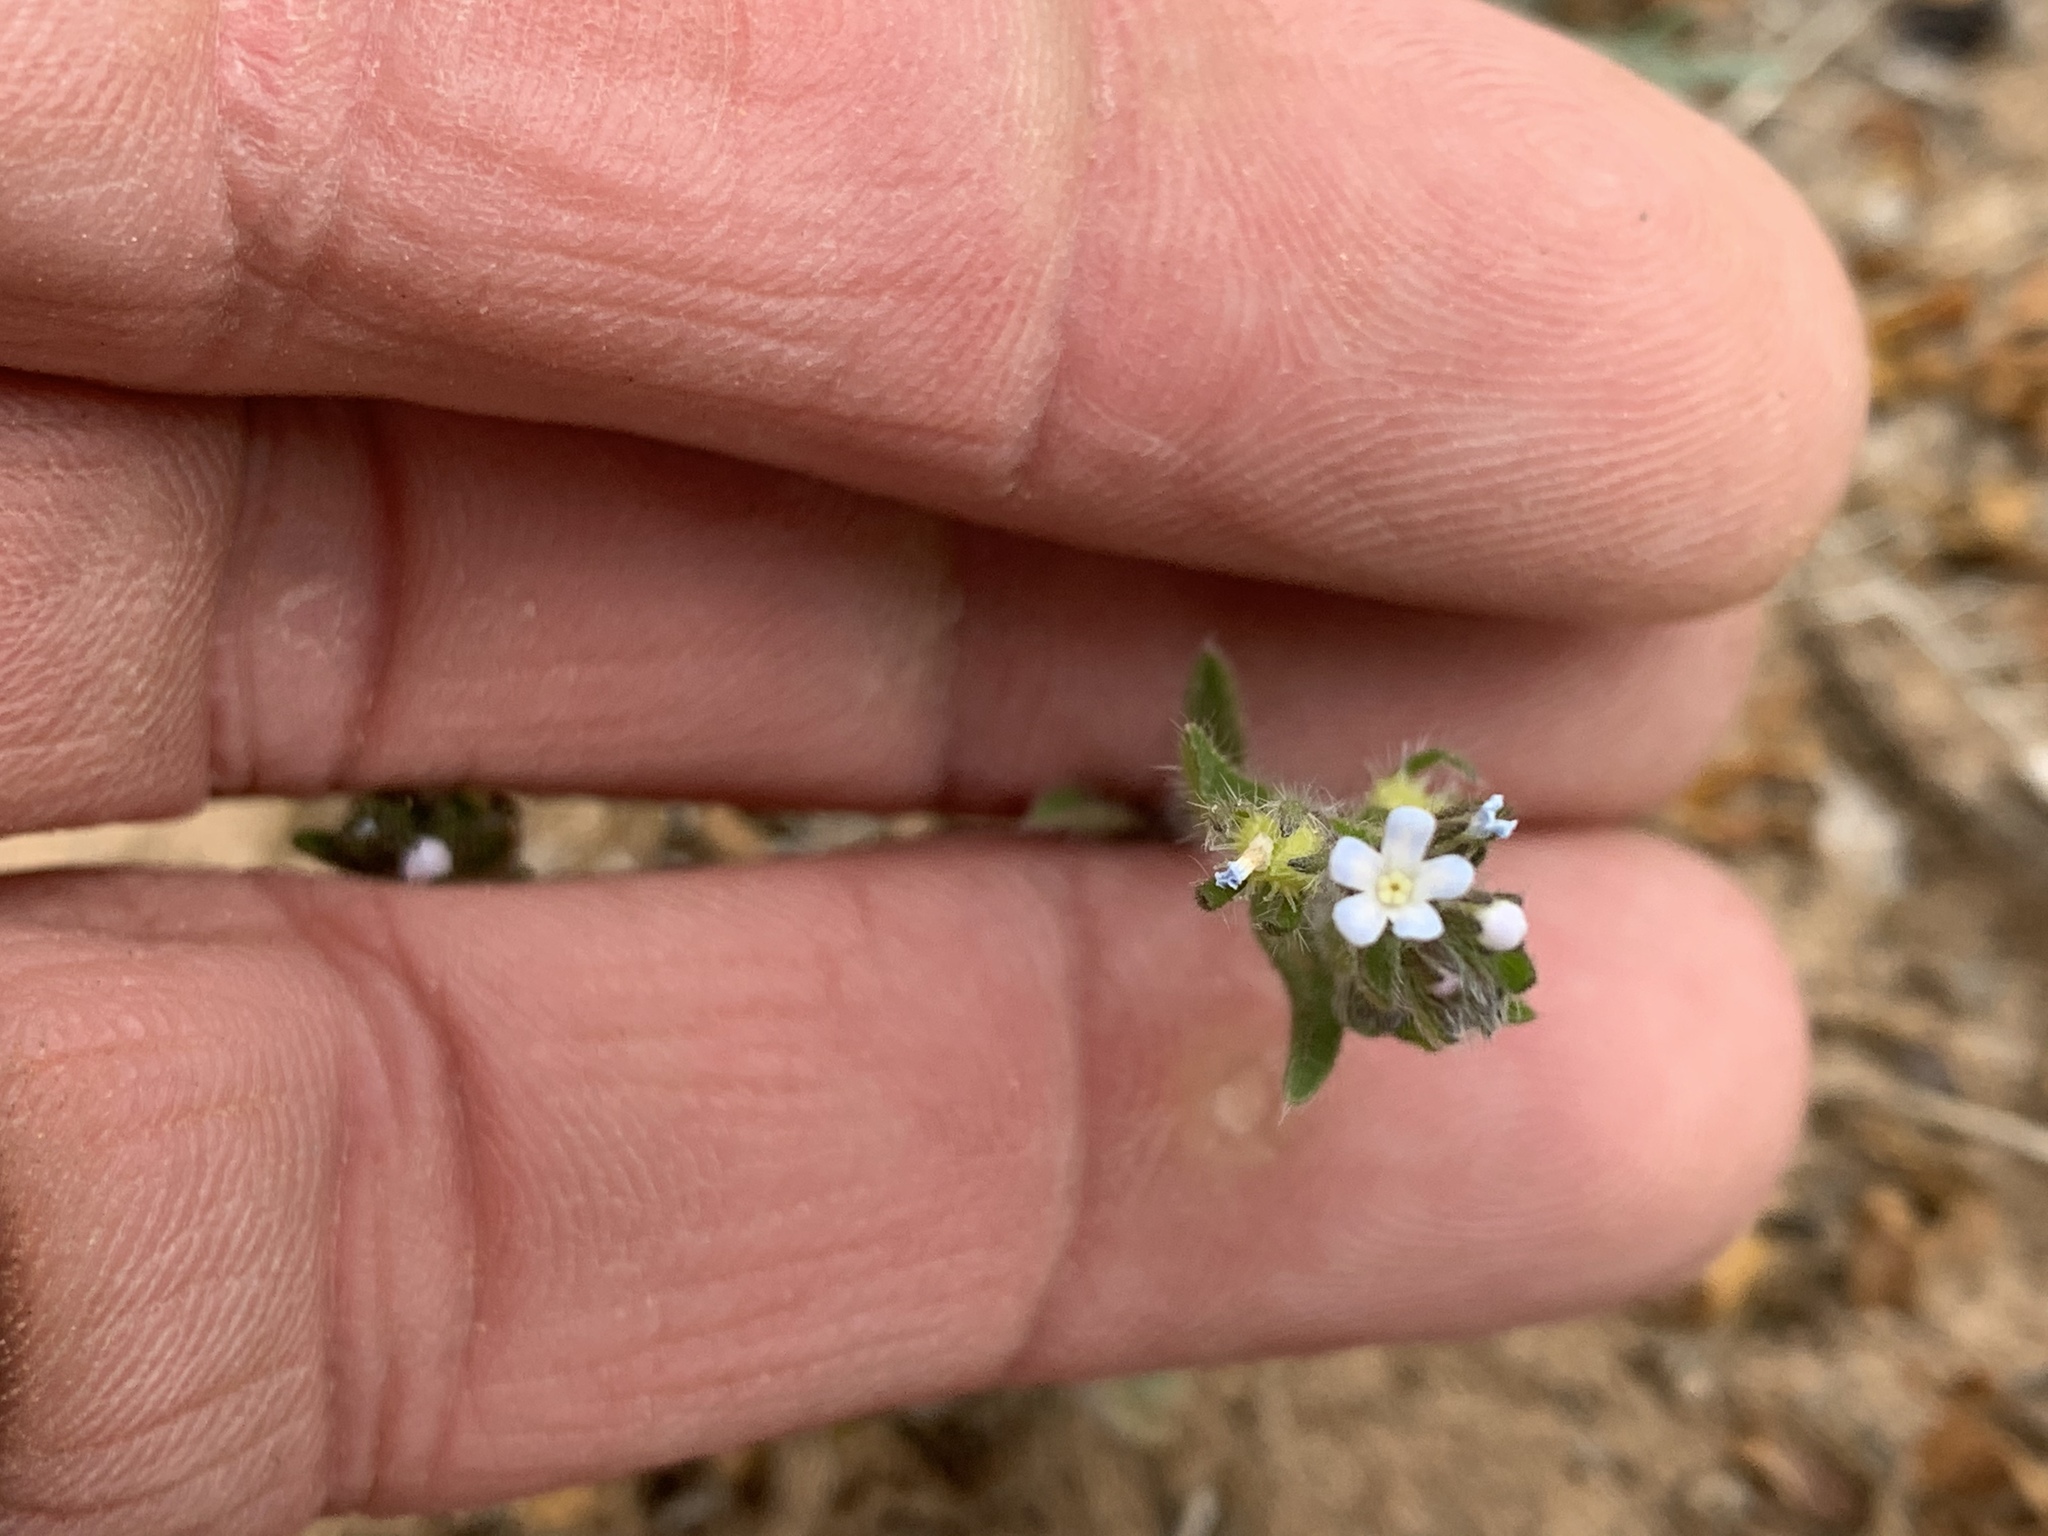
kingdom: Plantae
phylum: Tracheophyta
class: Magnoliopsida
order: Boraginales
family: Boraginaceae
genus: Lappula
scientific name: Lappula occidentalis
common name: Western stickseed
